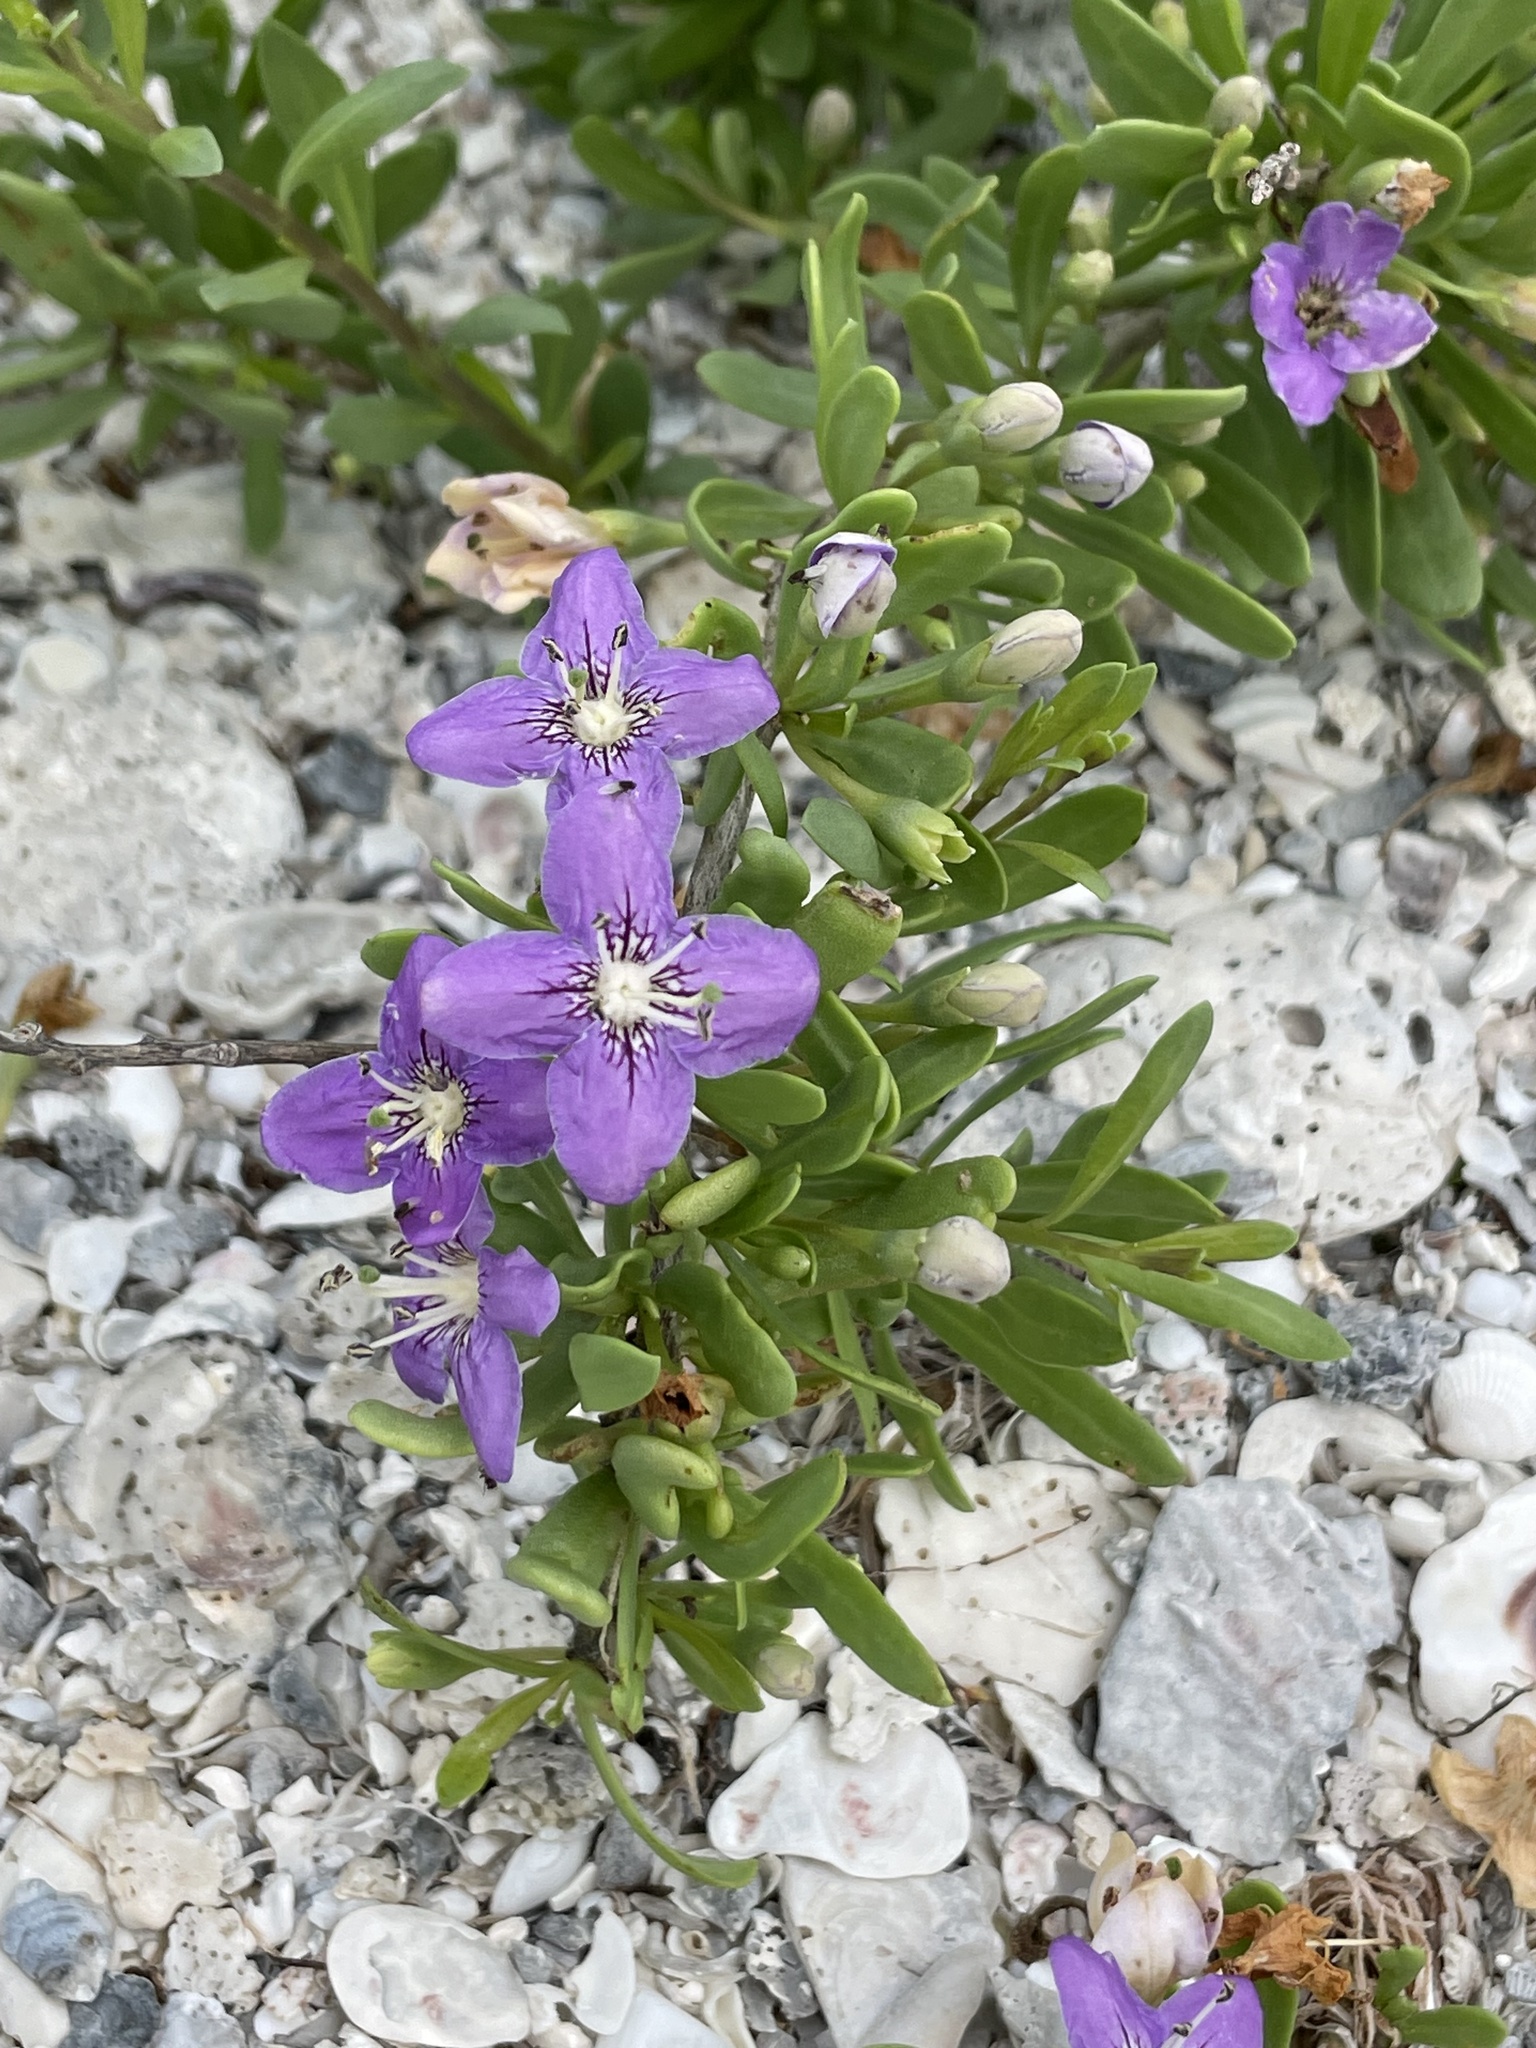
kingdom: Plantae
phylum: Tracheophyta
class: Magnoliopsida
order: Solanales
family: Solanaceae
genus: Lycium
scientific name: Lycium carolinianum
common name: Christmasberry
